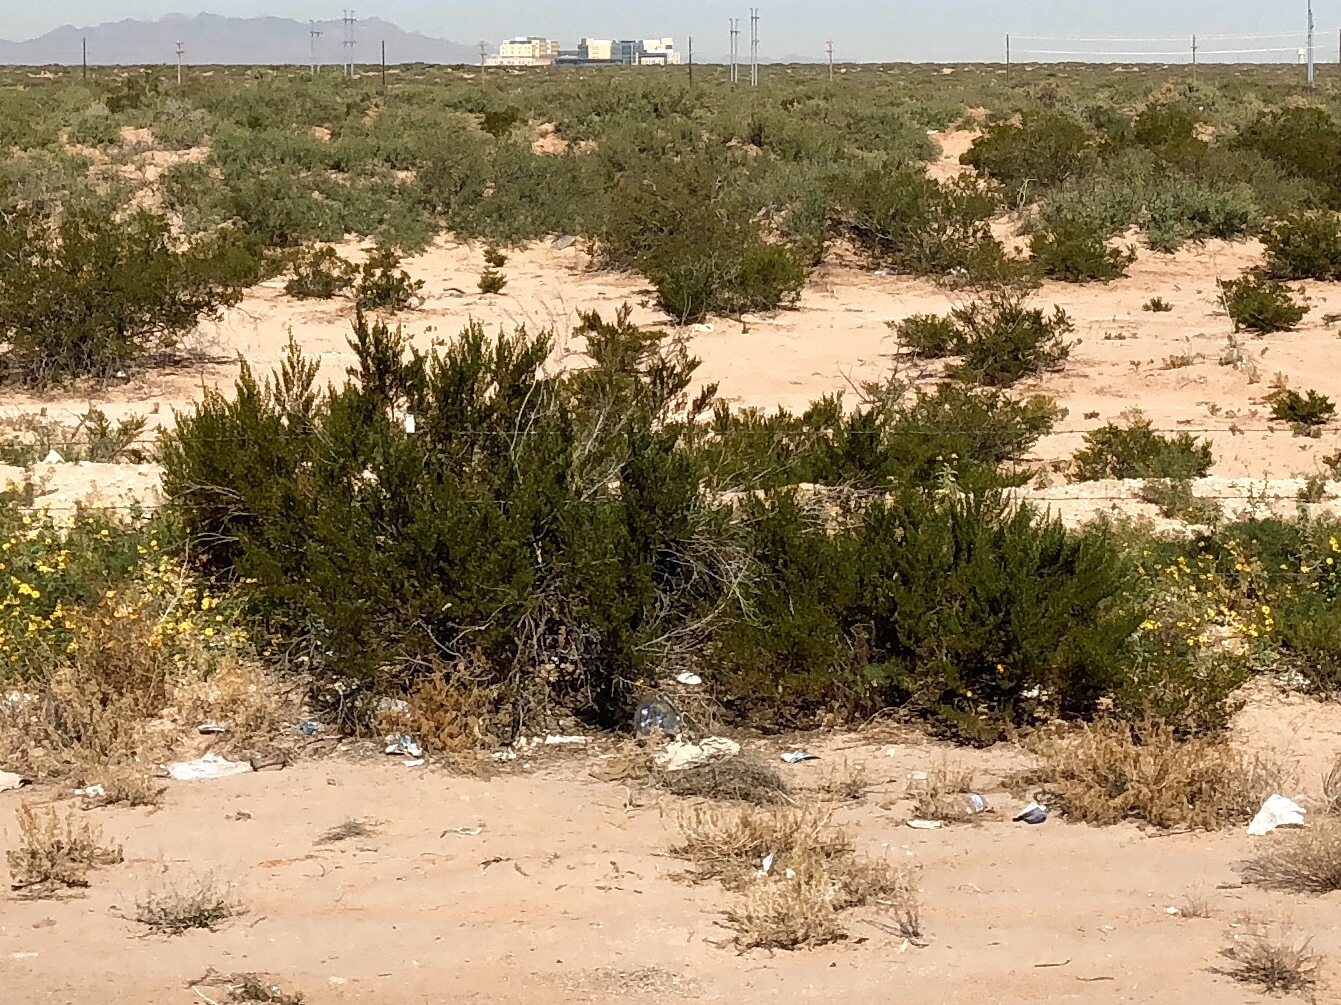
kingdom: Plantae
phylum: Tracheophyta
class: Magnoliopsida
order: Zygophyllales
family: Zygophyllaceae
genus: Larrea
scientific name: Larrea tridentata
